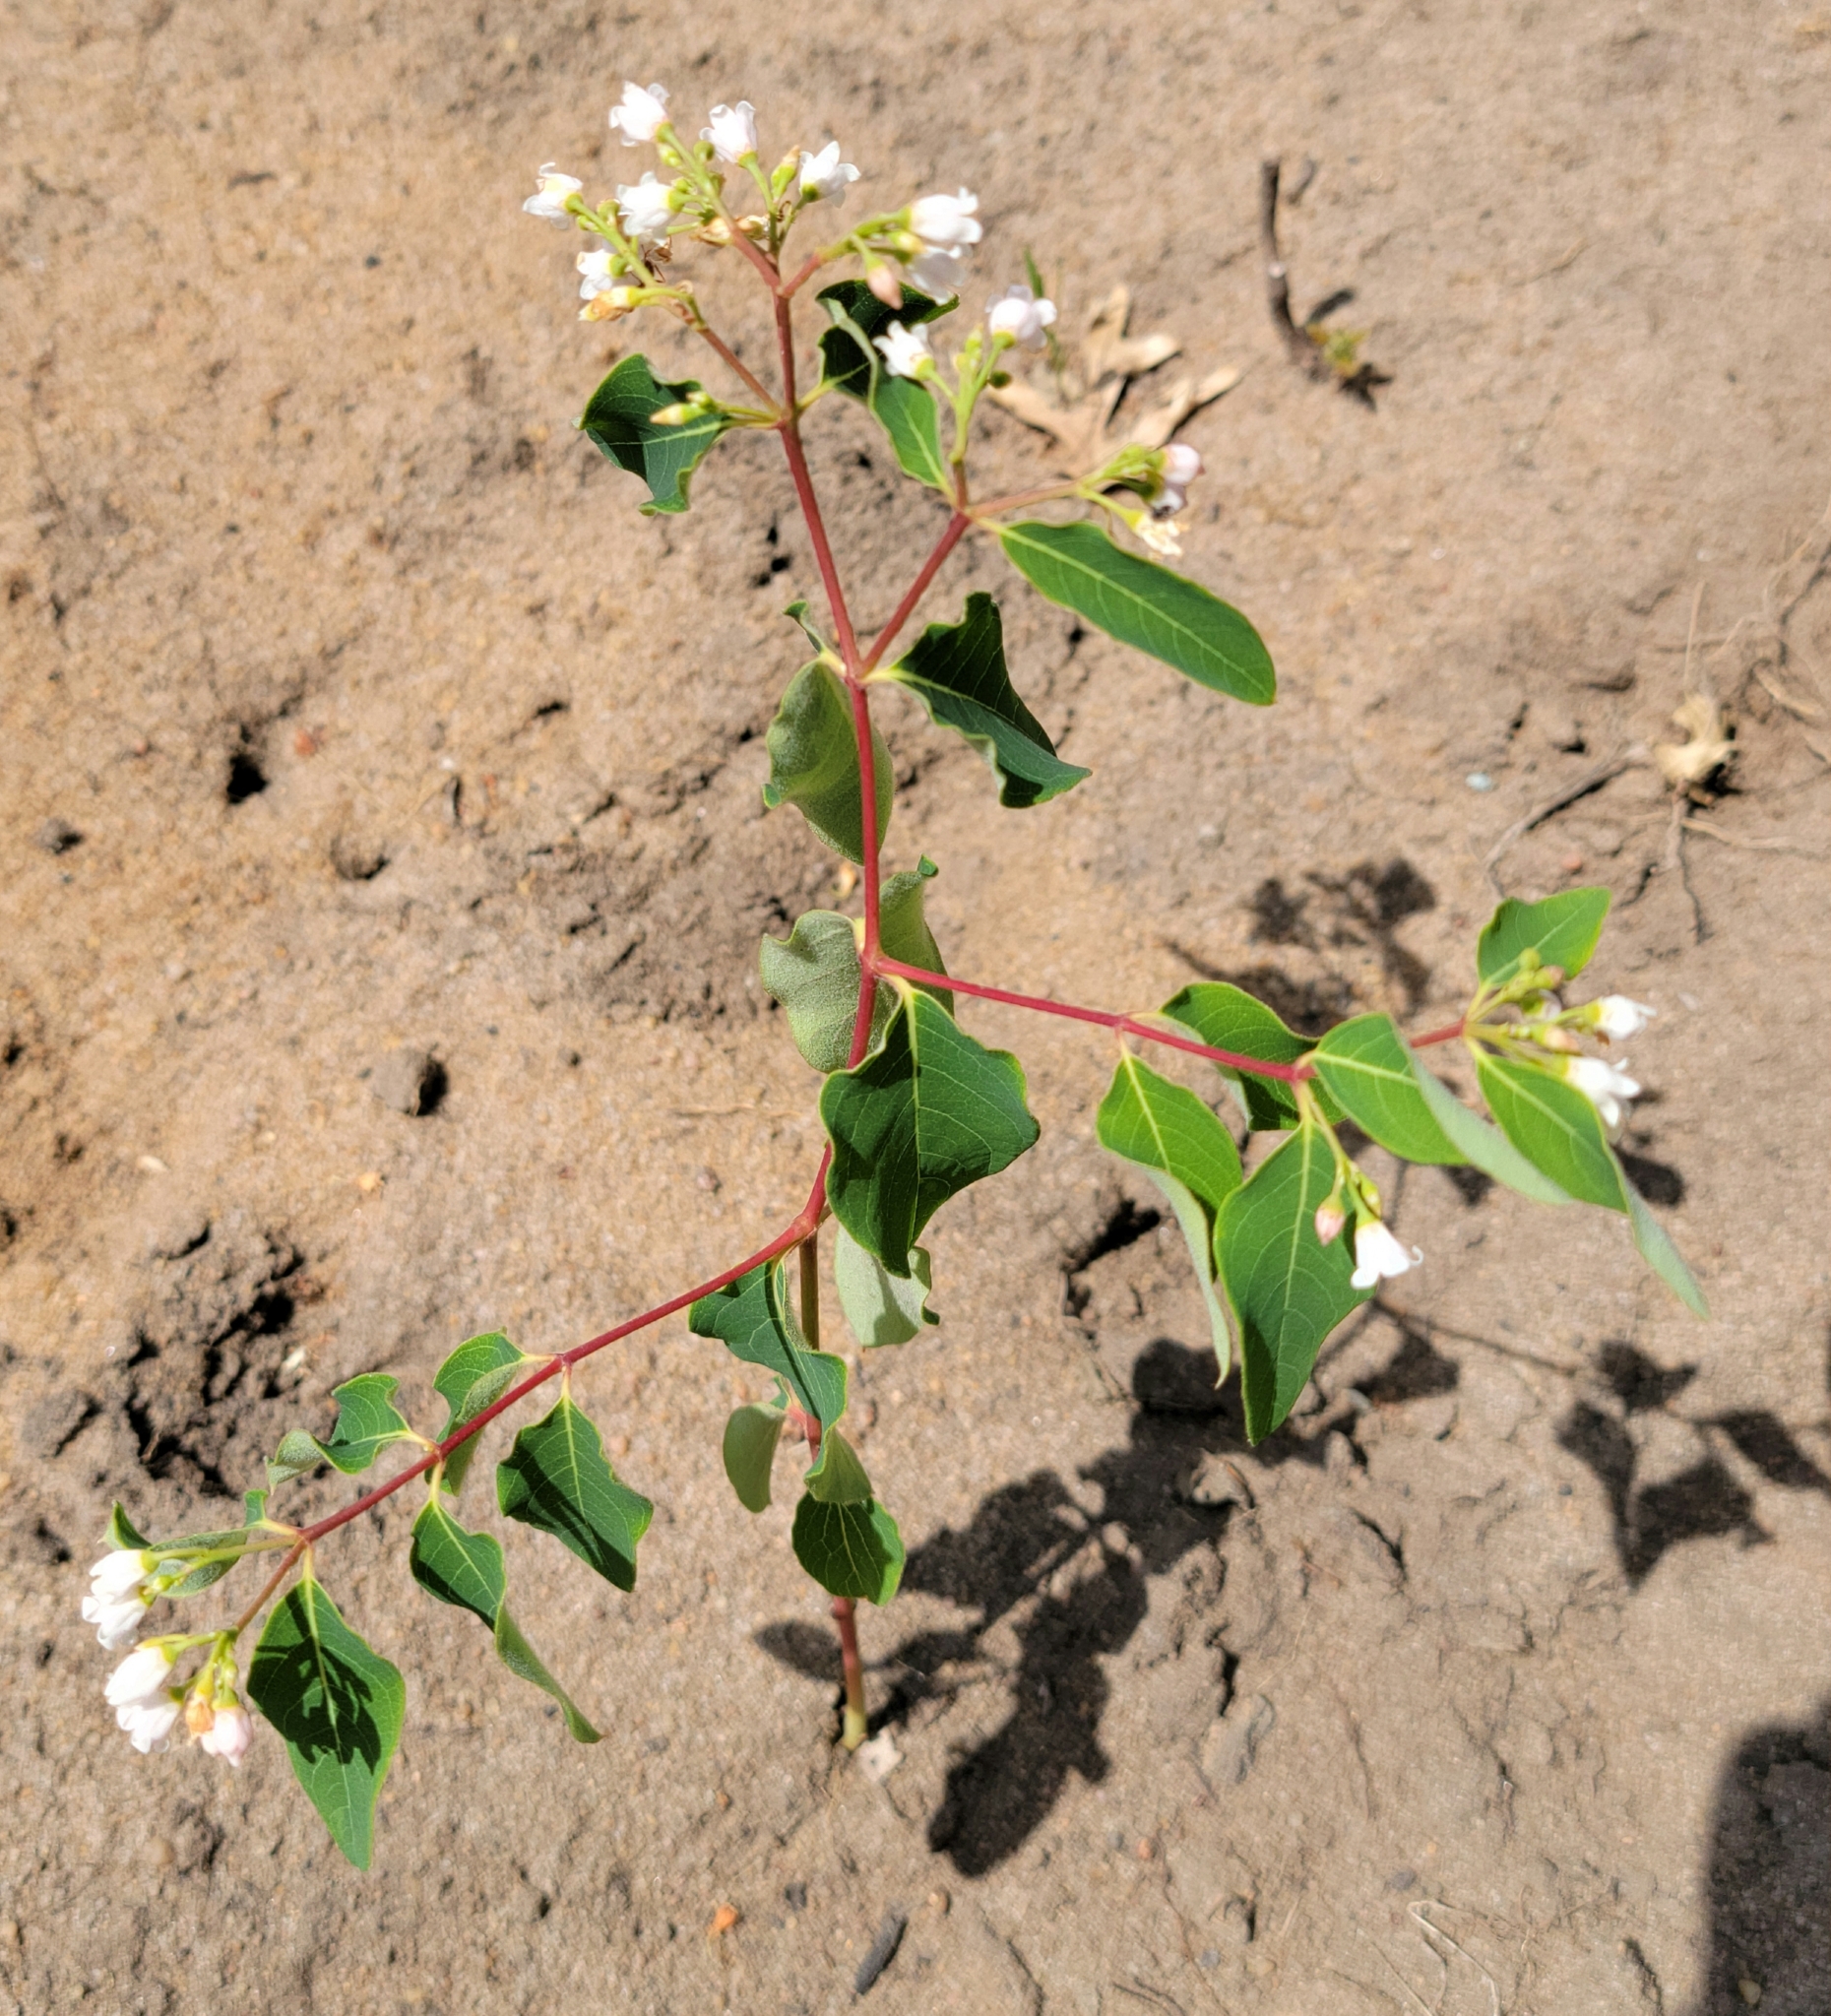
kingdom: Plantae
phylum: Tracheophyta
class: Magnoliopsida
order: Gentianales
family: Apocynaceae
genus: Apocynum
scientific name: Apocynum androsaemifolium
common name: Spreading dogbane
